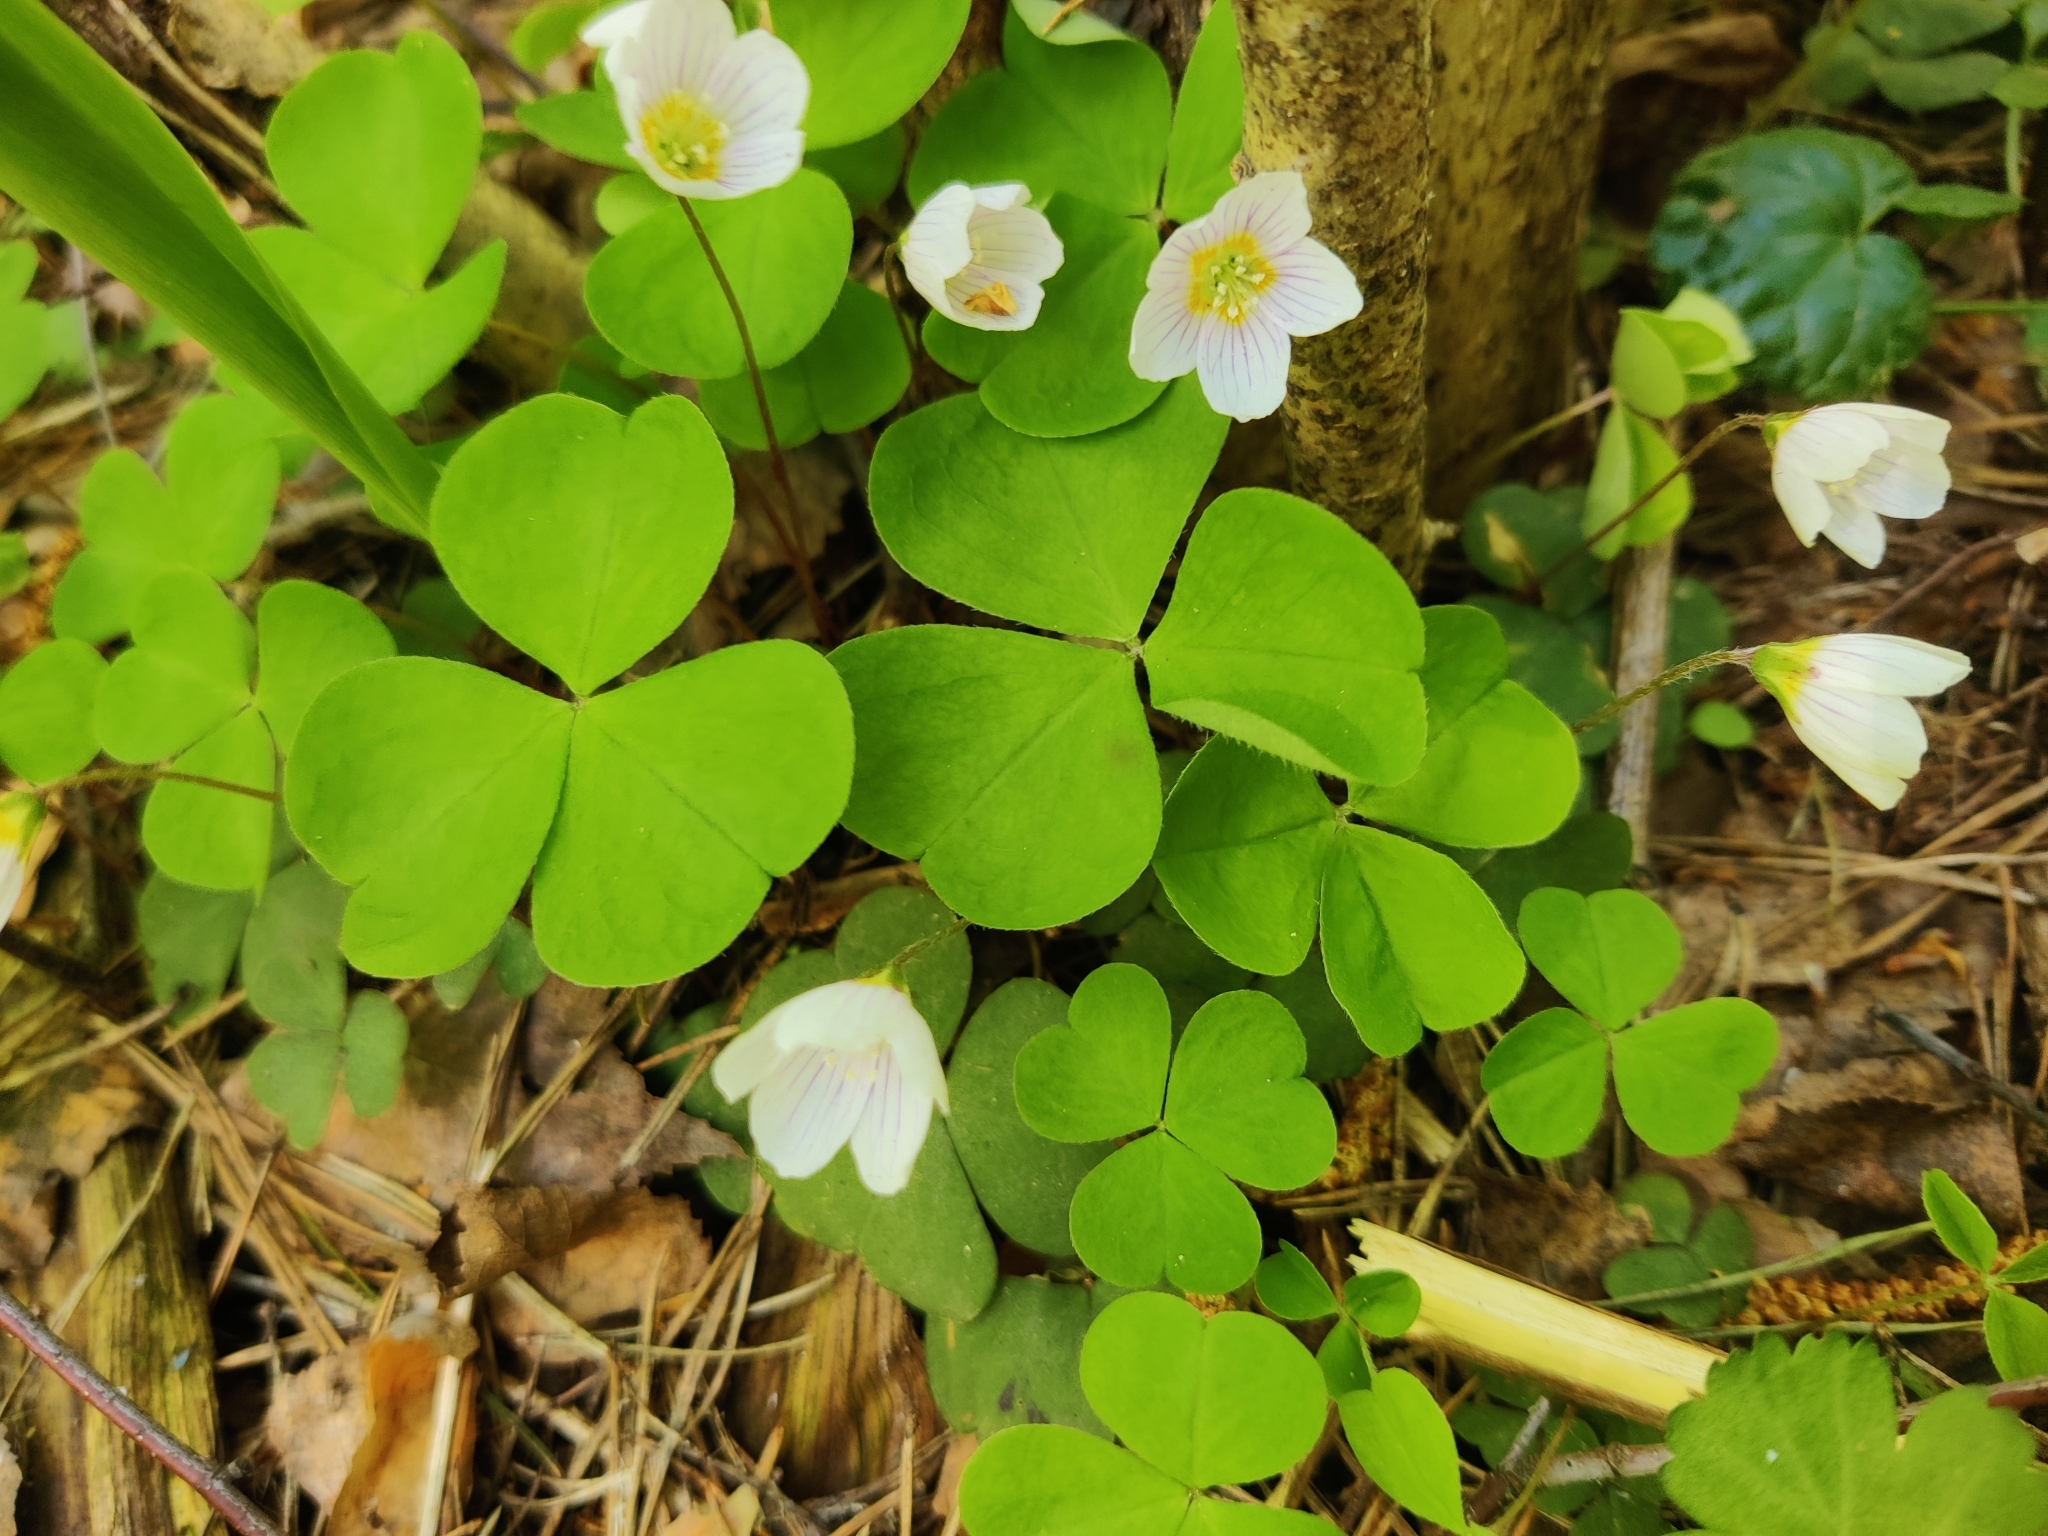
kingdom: Plantae
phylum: Tracheophyta
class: Magnoliopsida
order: Oxalidales
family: Oxalidaceae
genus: Oxalis
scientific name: Oxalis acetosella
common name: Wood-sorrel
